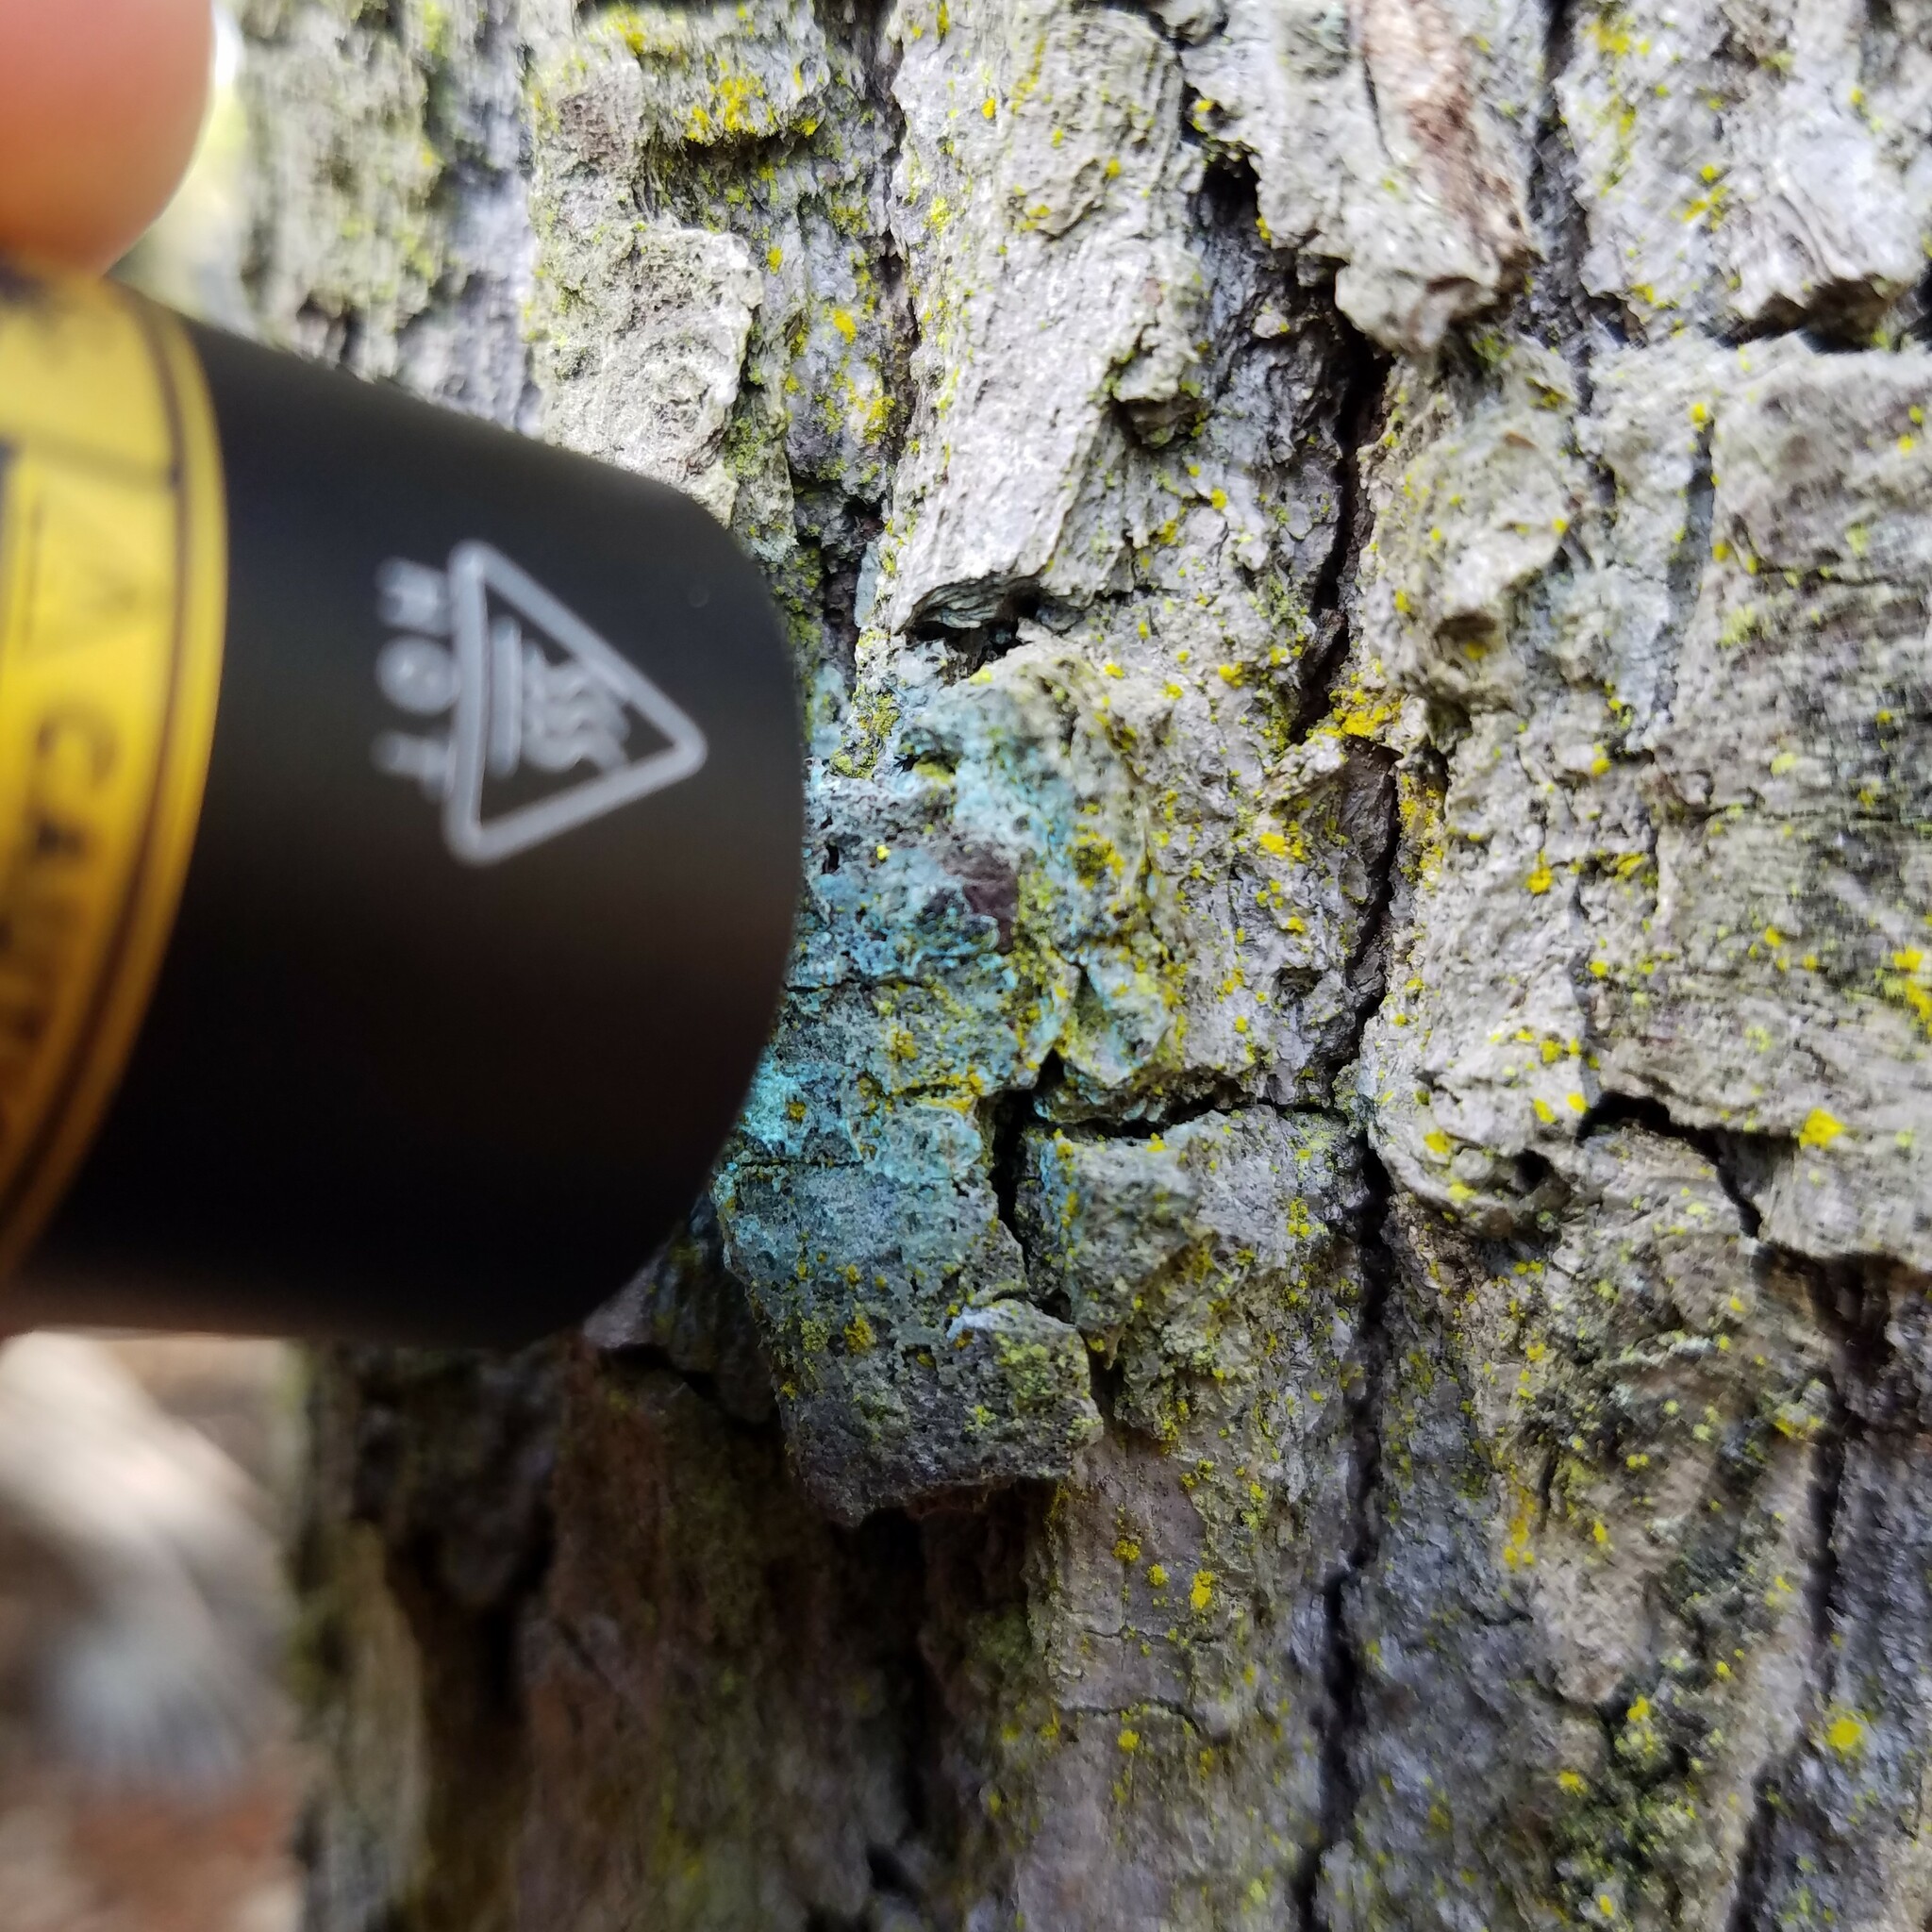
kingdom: Fungi
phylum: Ascomycota
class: Arthoniomycetes
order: Arthoniales
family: Chrysotrichaceae
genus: Chrysothrix
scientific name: Chrysothrix chamaecyparicola
